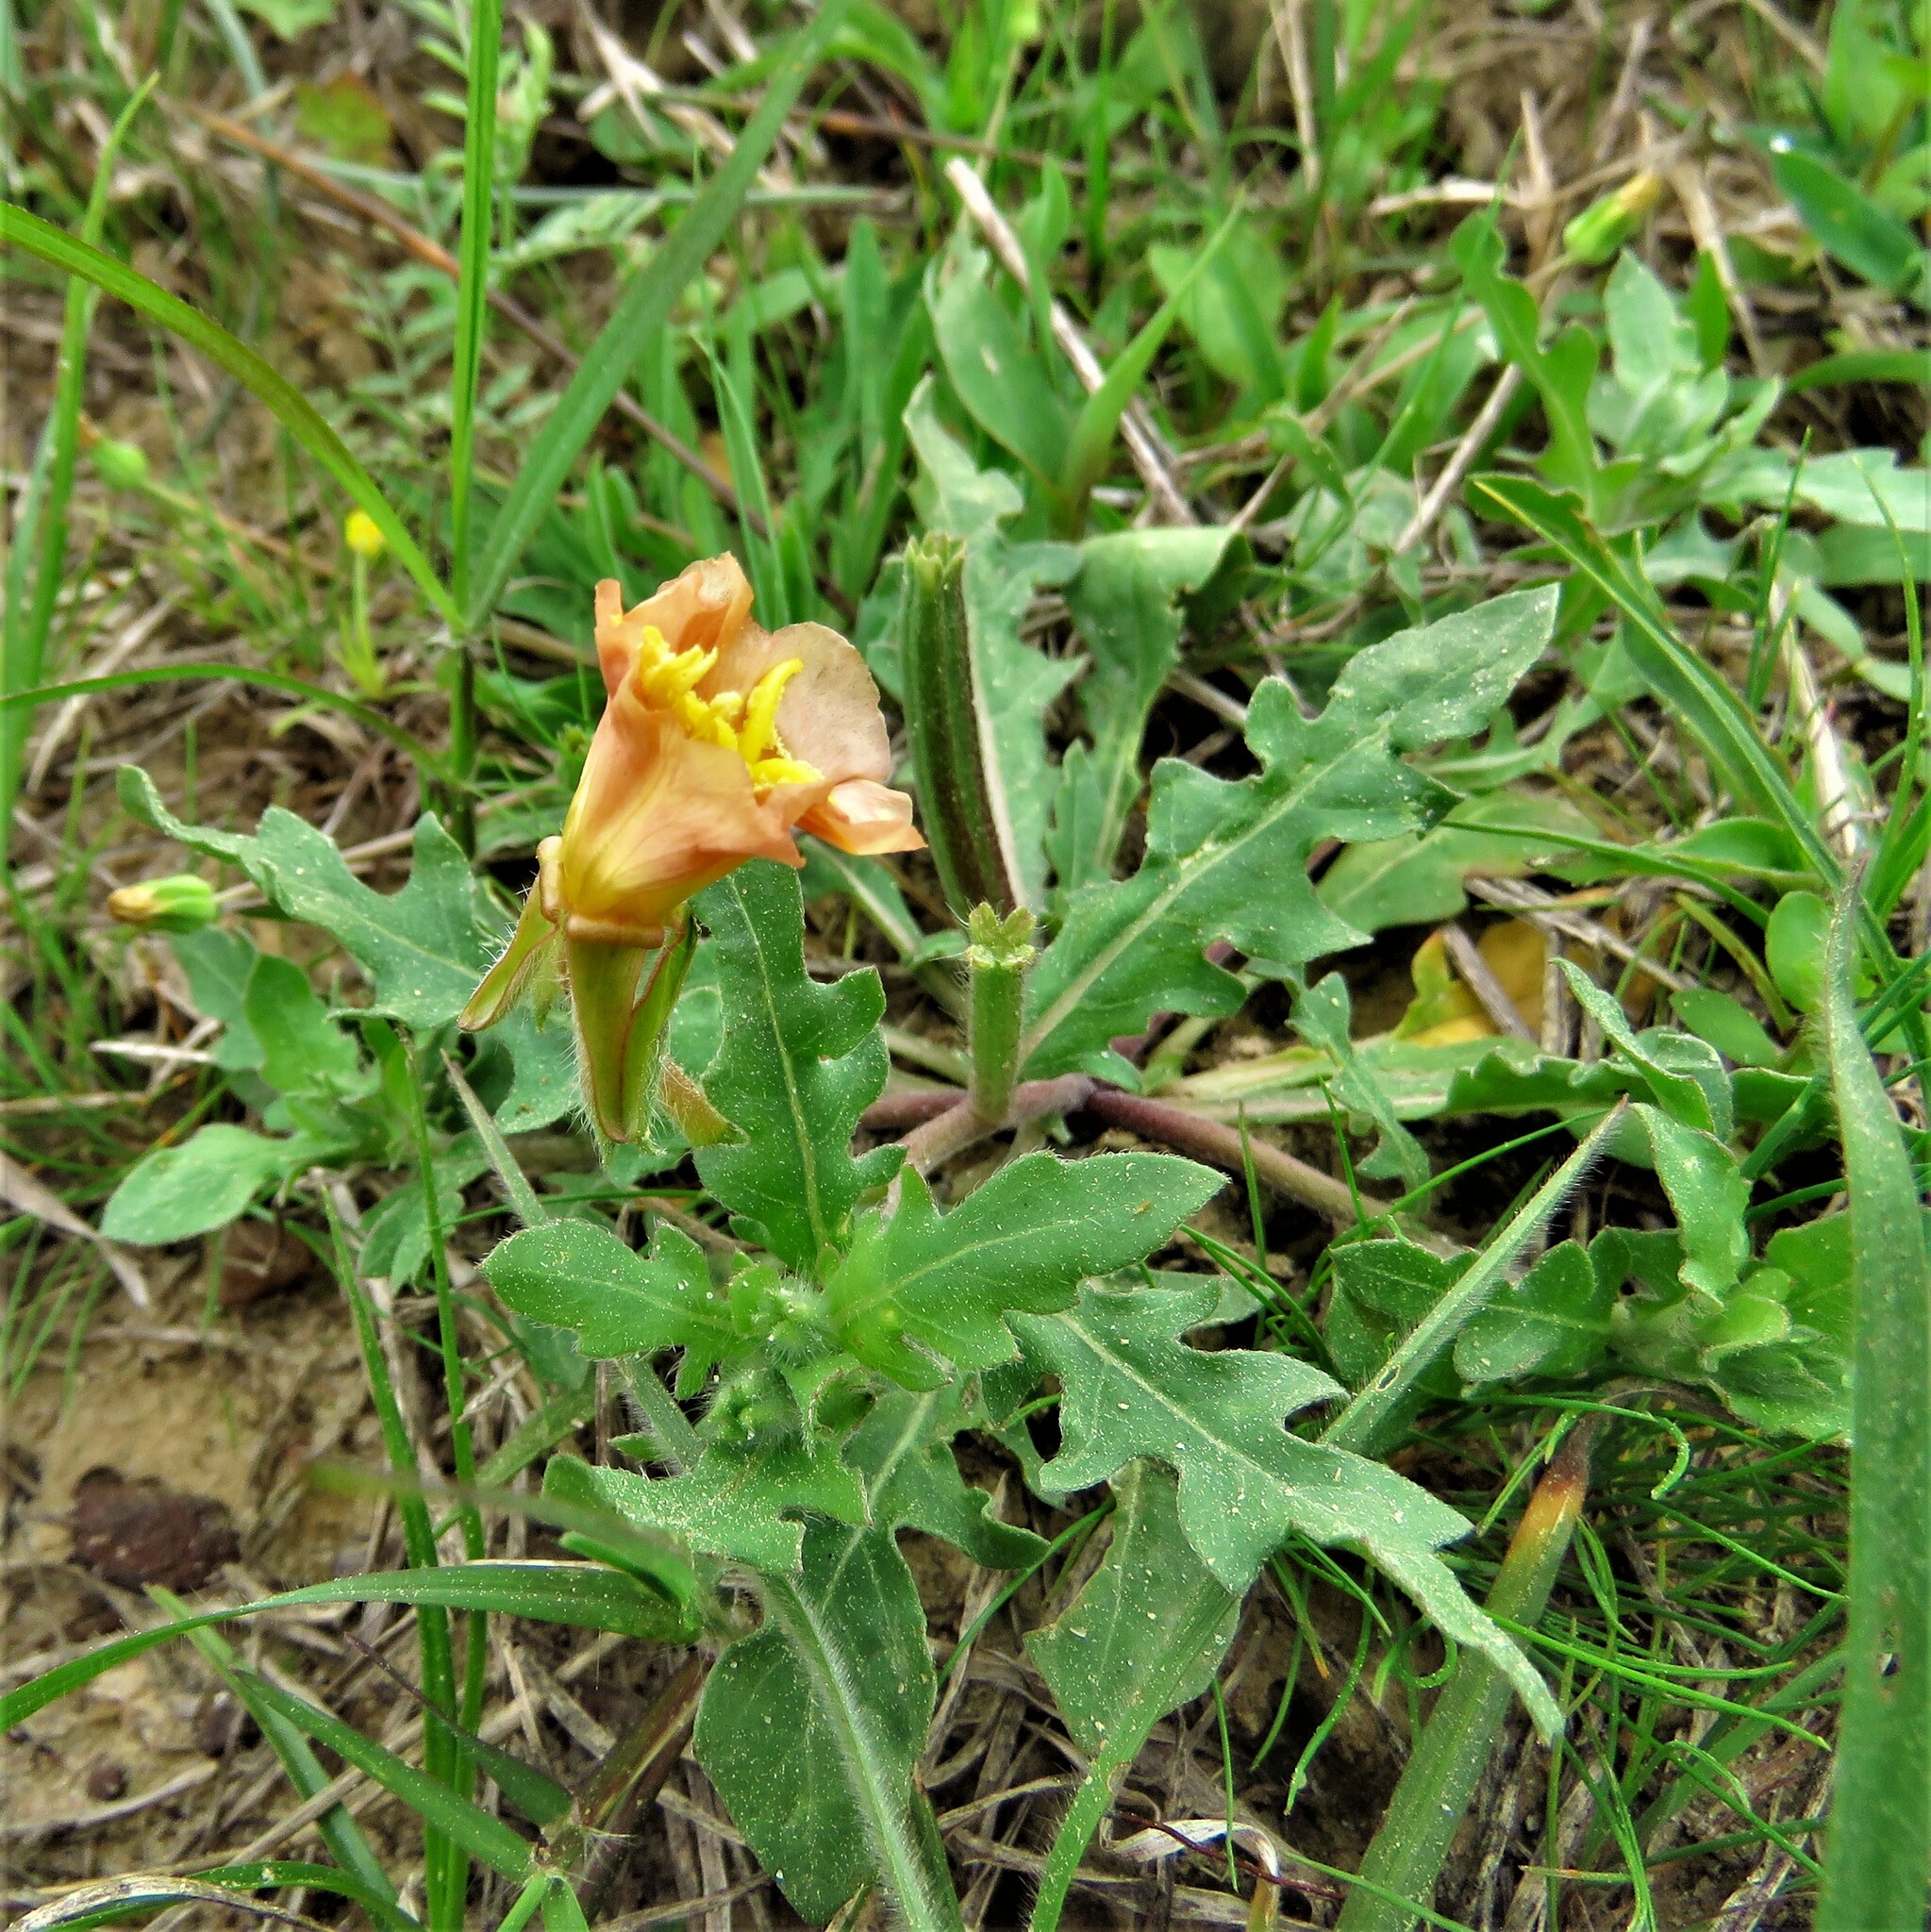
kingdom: Plantae
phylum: Tracheophyta
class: Magnoliopsida
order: Myrtales
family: Onagraceae
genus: Oenothera
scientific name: Oenothera laciniata
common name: Cut-leaved evening-primrose
